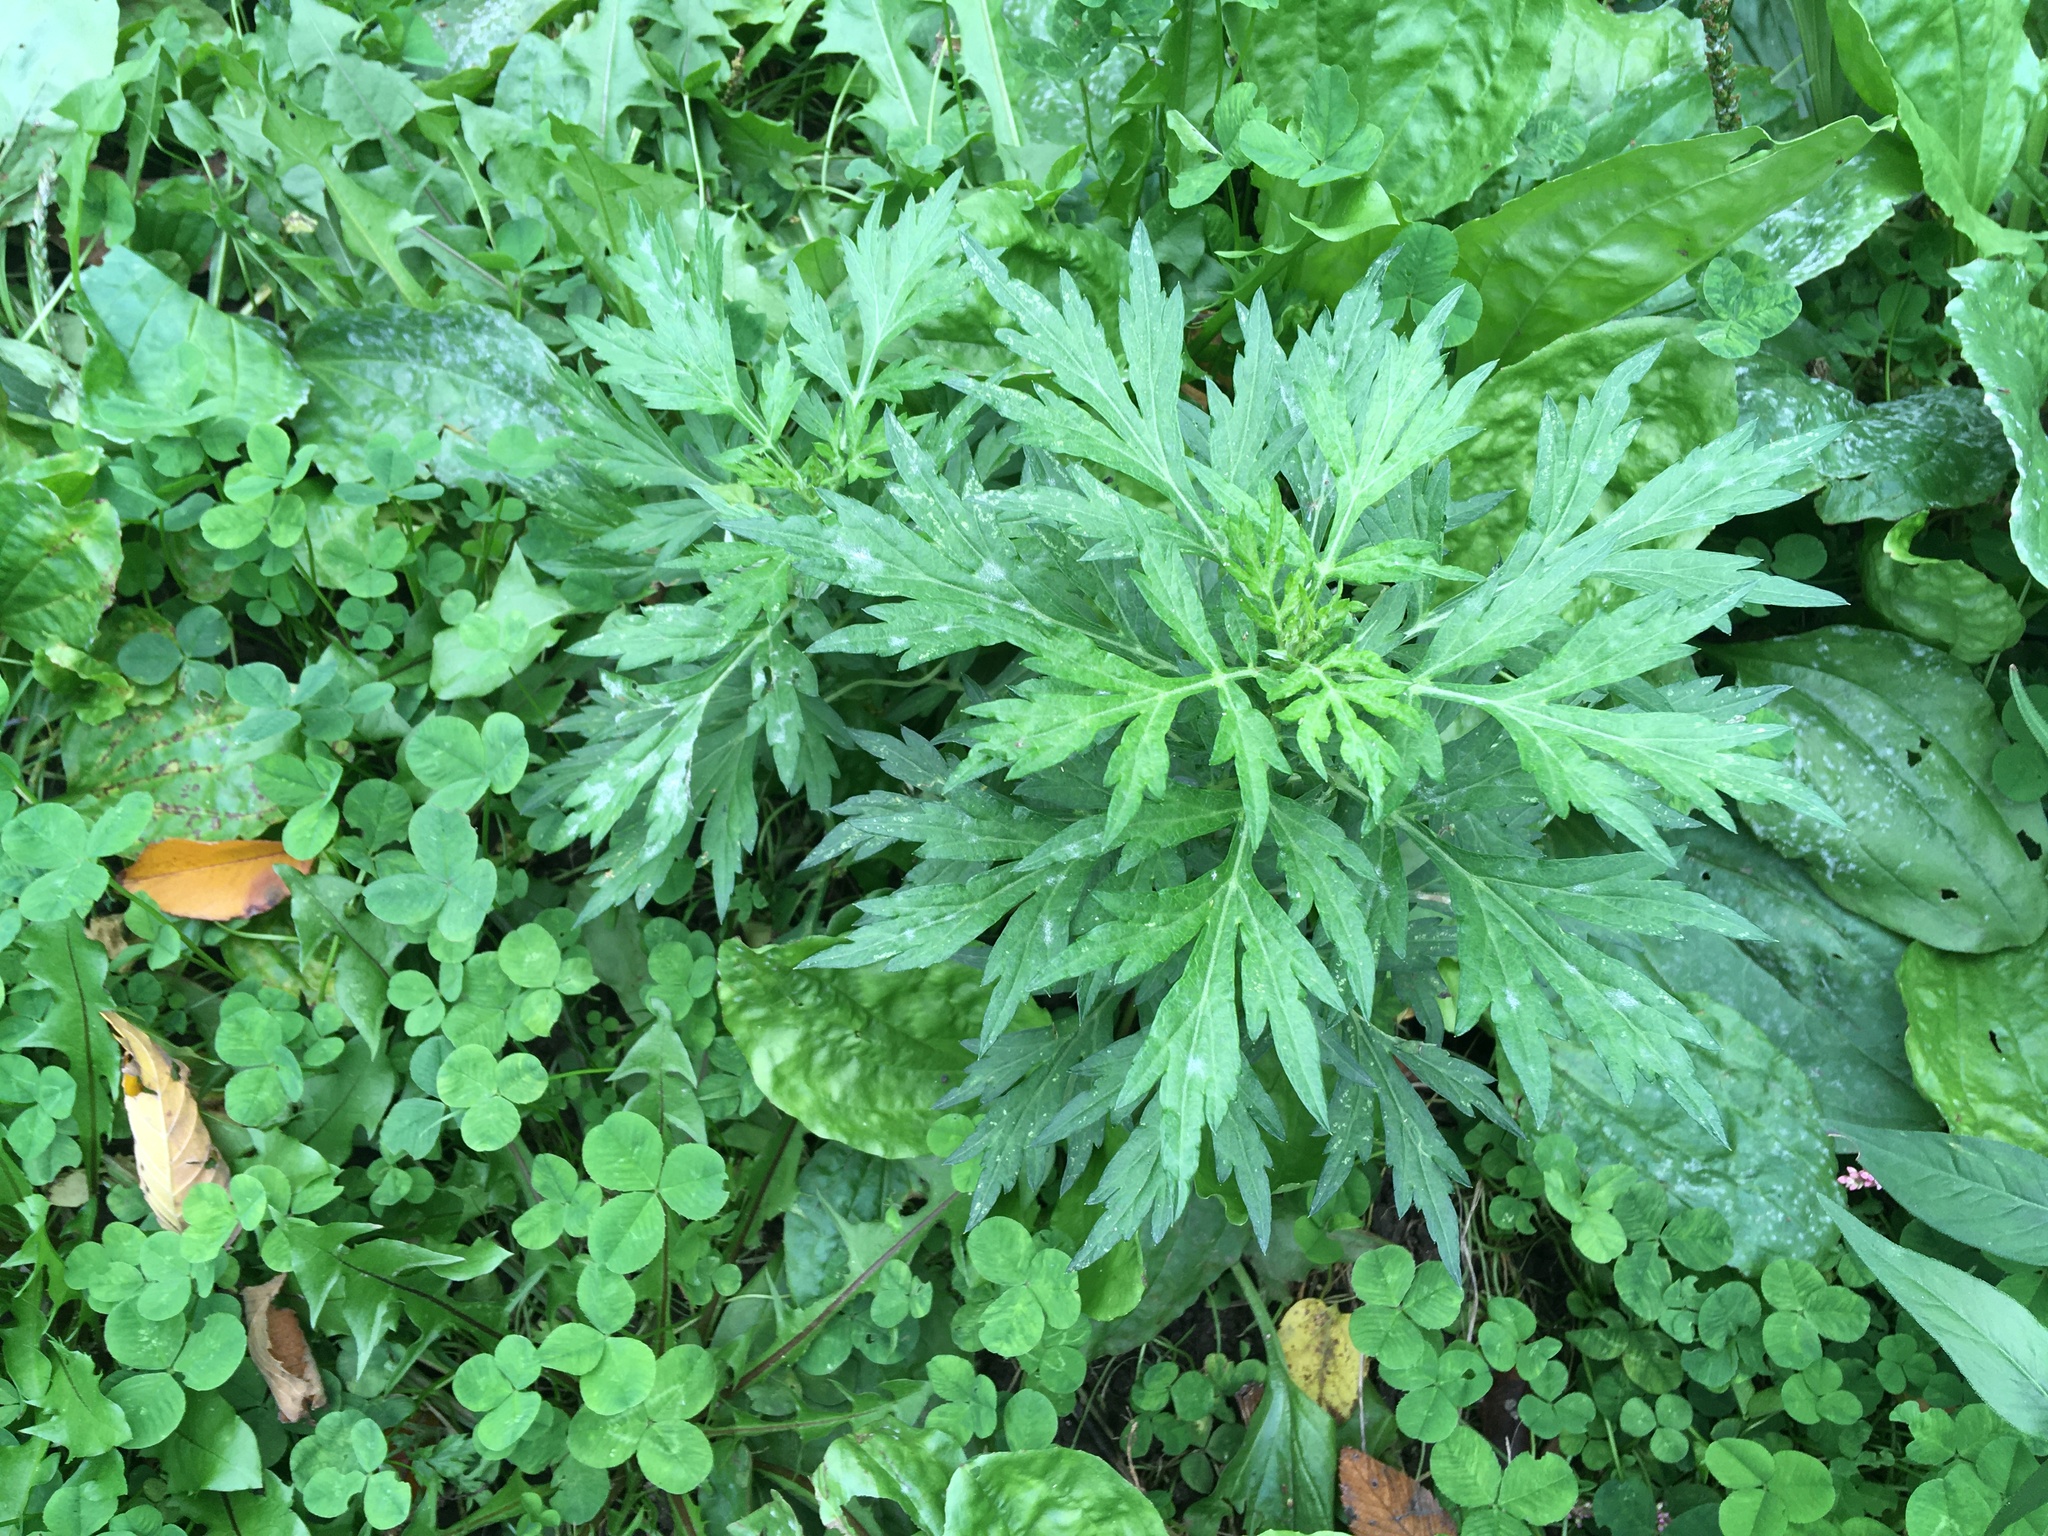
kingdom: Plantae
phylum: Tracheophyta
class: Magnoliopsida
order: Asterales
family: Asteraceae
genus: Artemisia
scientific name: Artemisia vulgaris
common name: Mugwort
